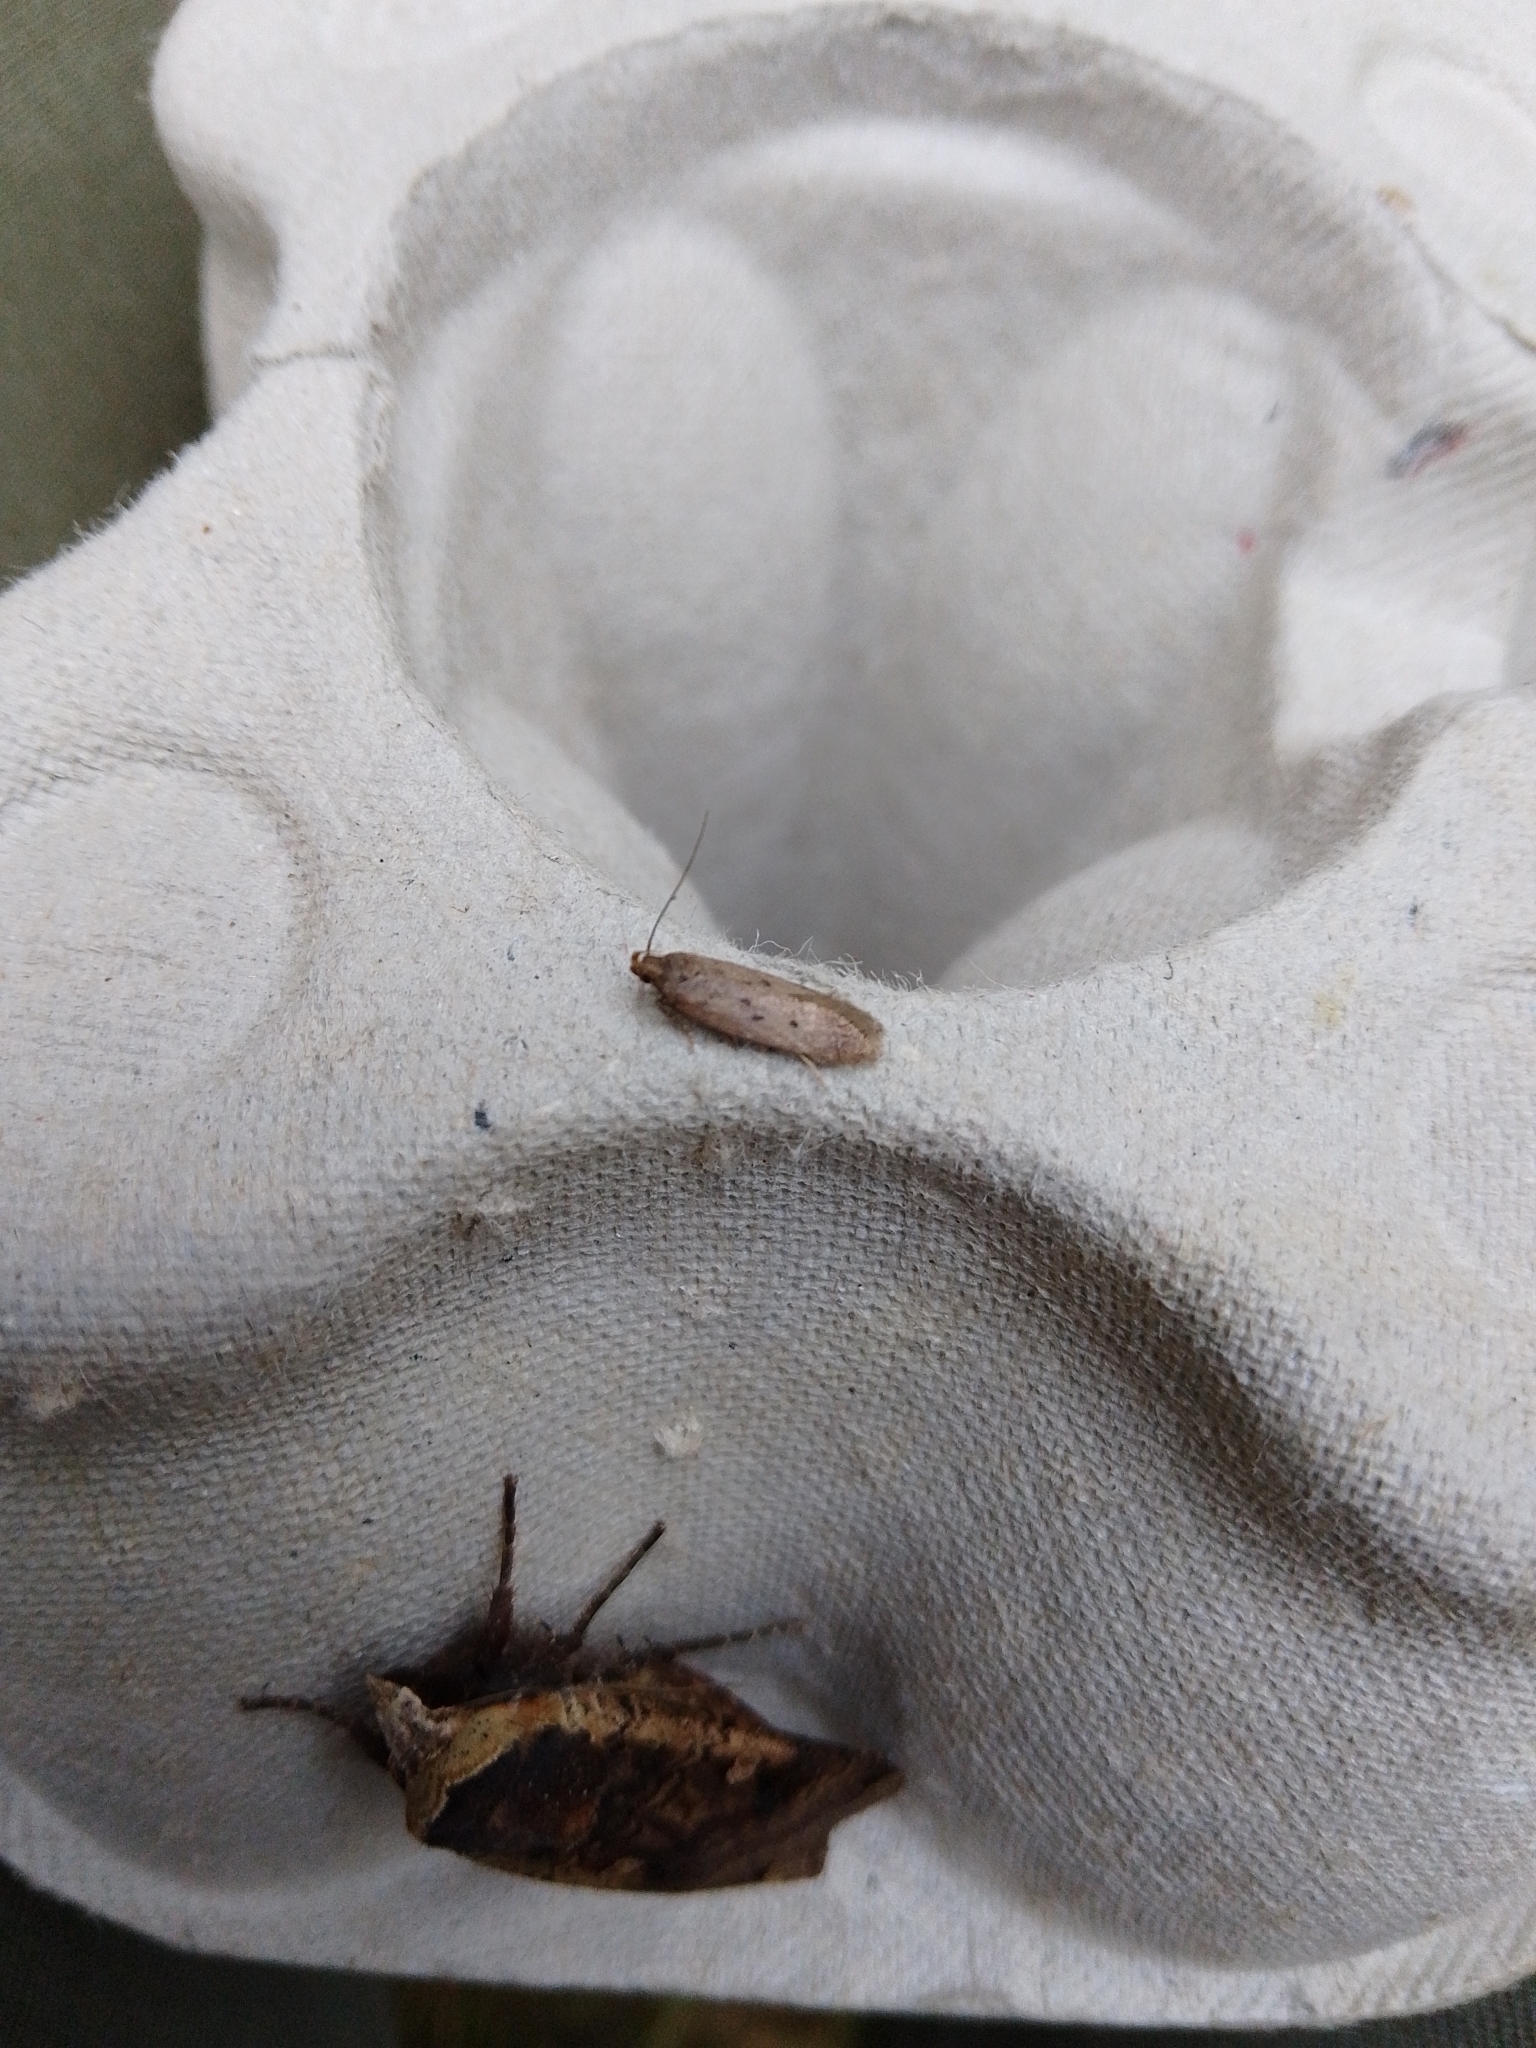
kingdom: Animalia
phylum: Arthropoda
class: Insecta
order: Lepidoptera
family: Oecophoridae
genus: Hofmannophila
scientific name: Hofmannophila pseudospretella
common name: Brown house moth
